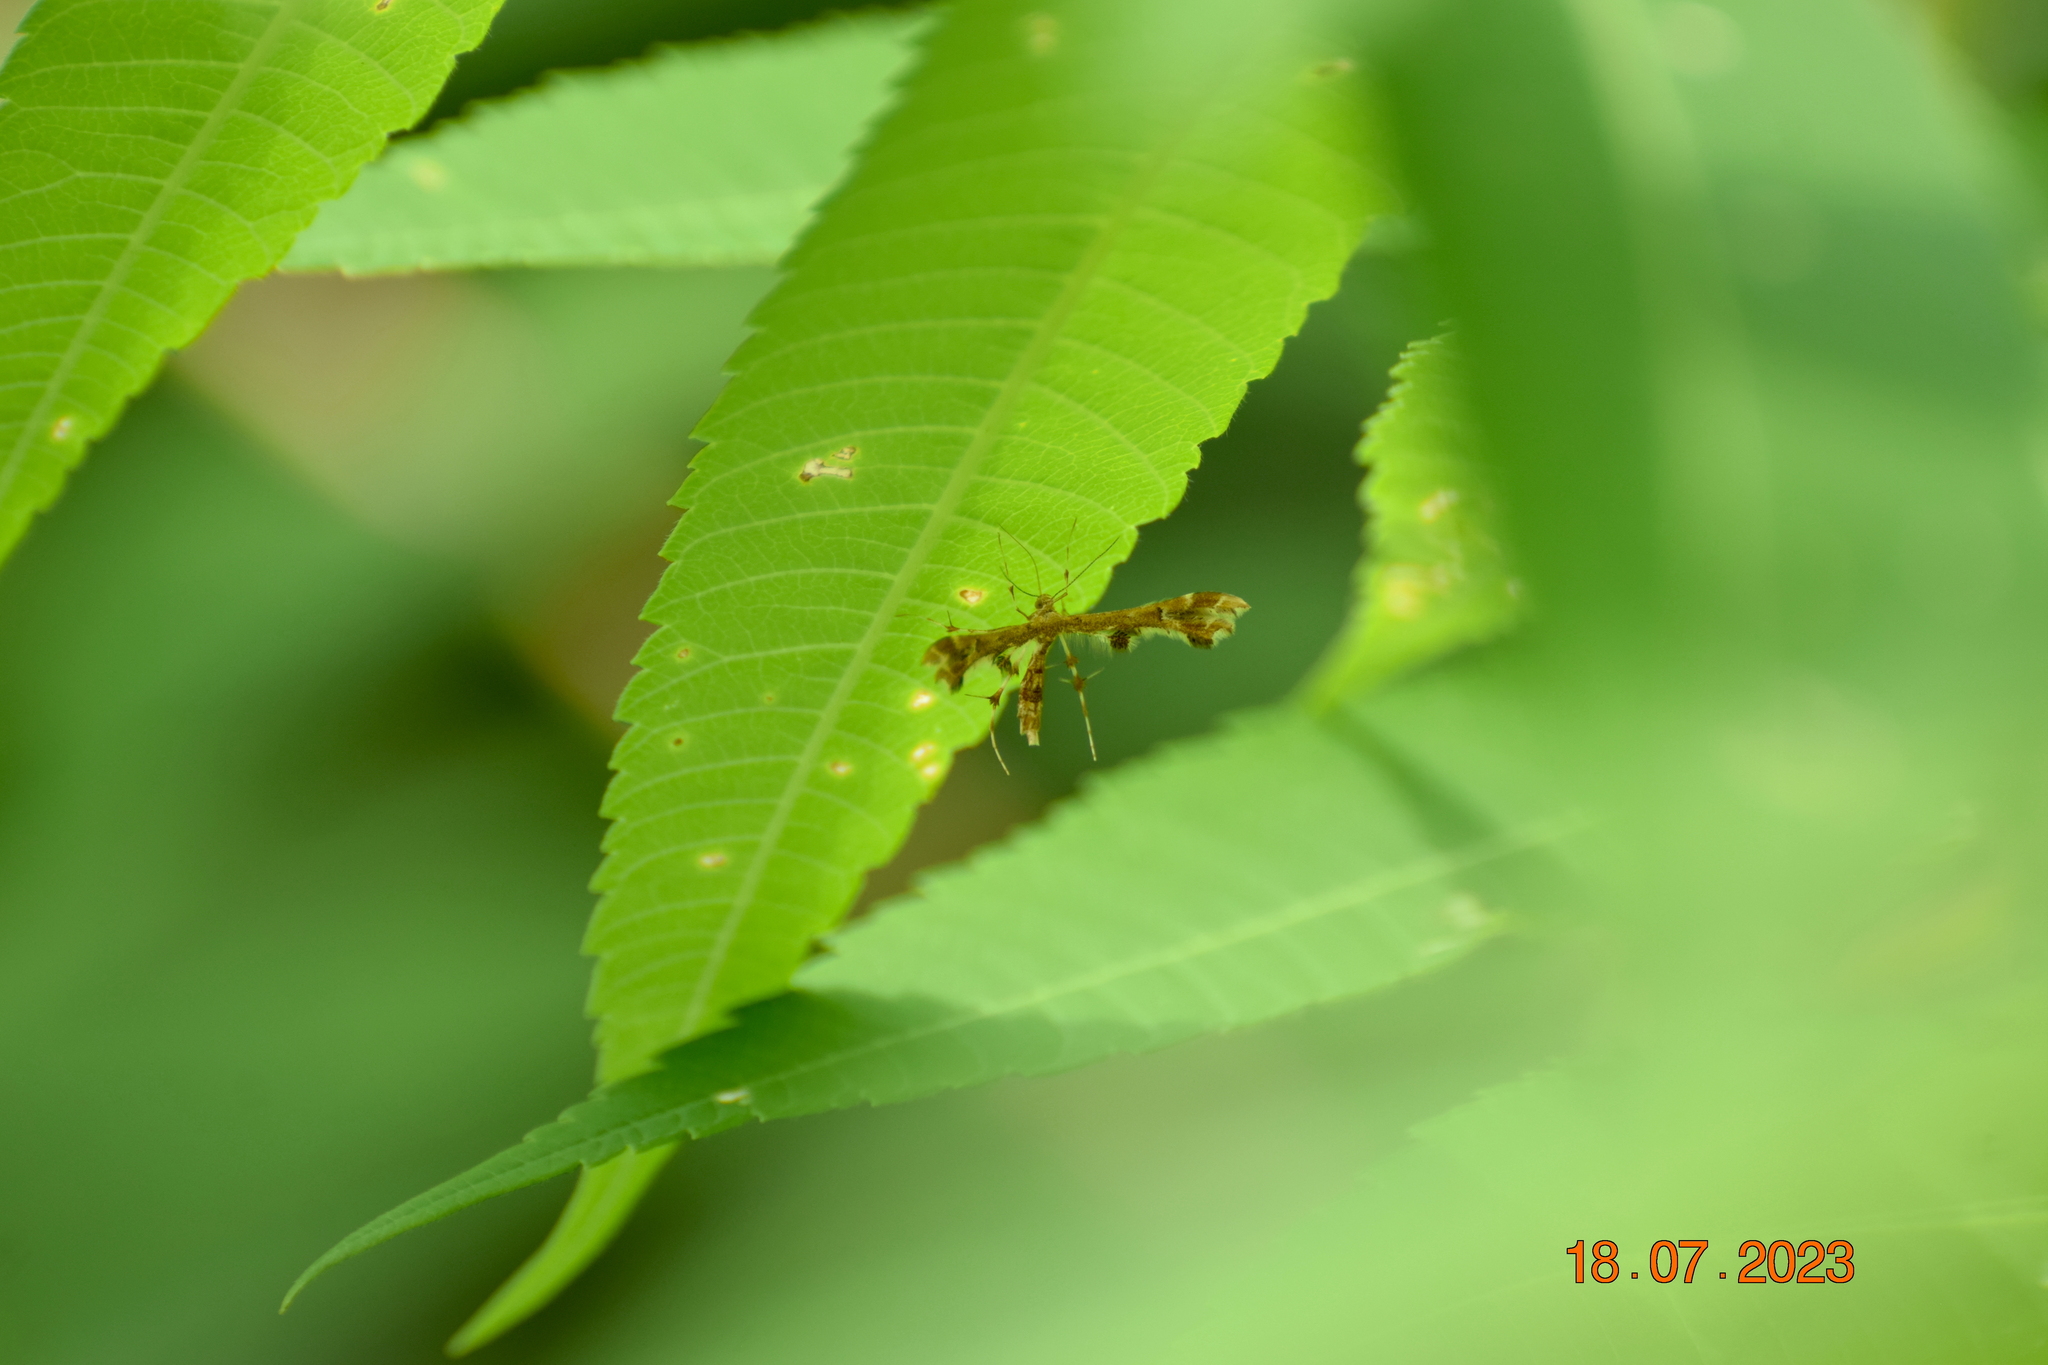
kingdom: Animalia
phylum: Arthropoda
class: Insecta
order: Lepidoptera
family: Pterophoridae
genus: Geina
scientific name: Geina
